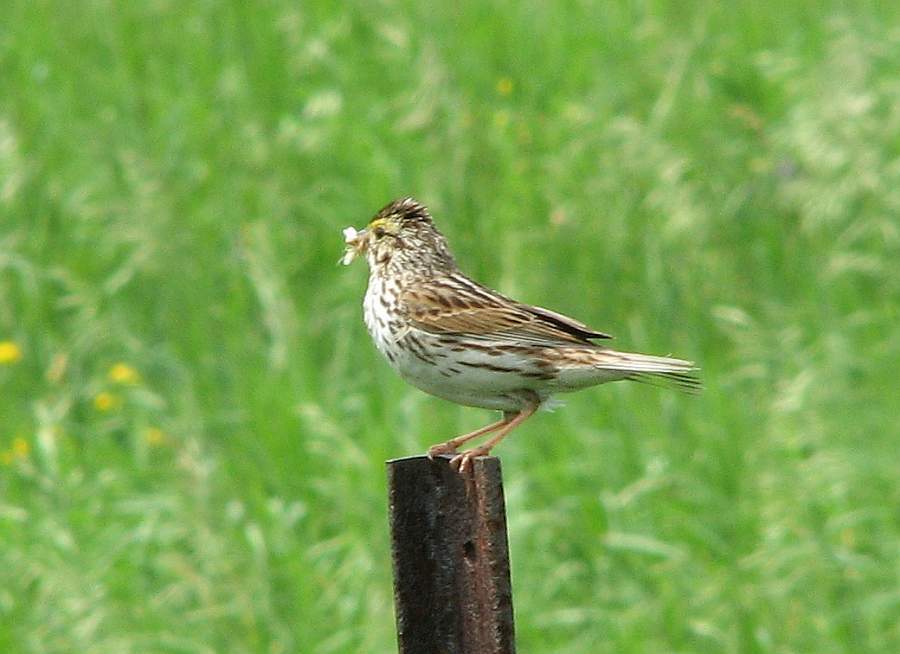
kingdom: Animalia
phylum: Chordata
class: Aves
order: Passeriformes
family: Passerellidae
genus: Passerculus
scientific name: Passerculus sandwichensis
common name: Savannah sparrow
